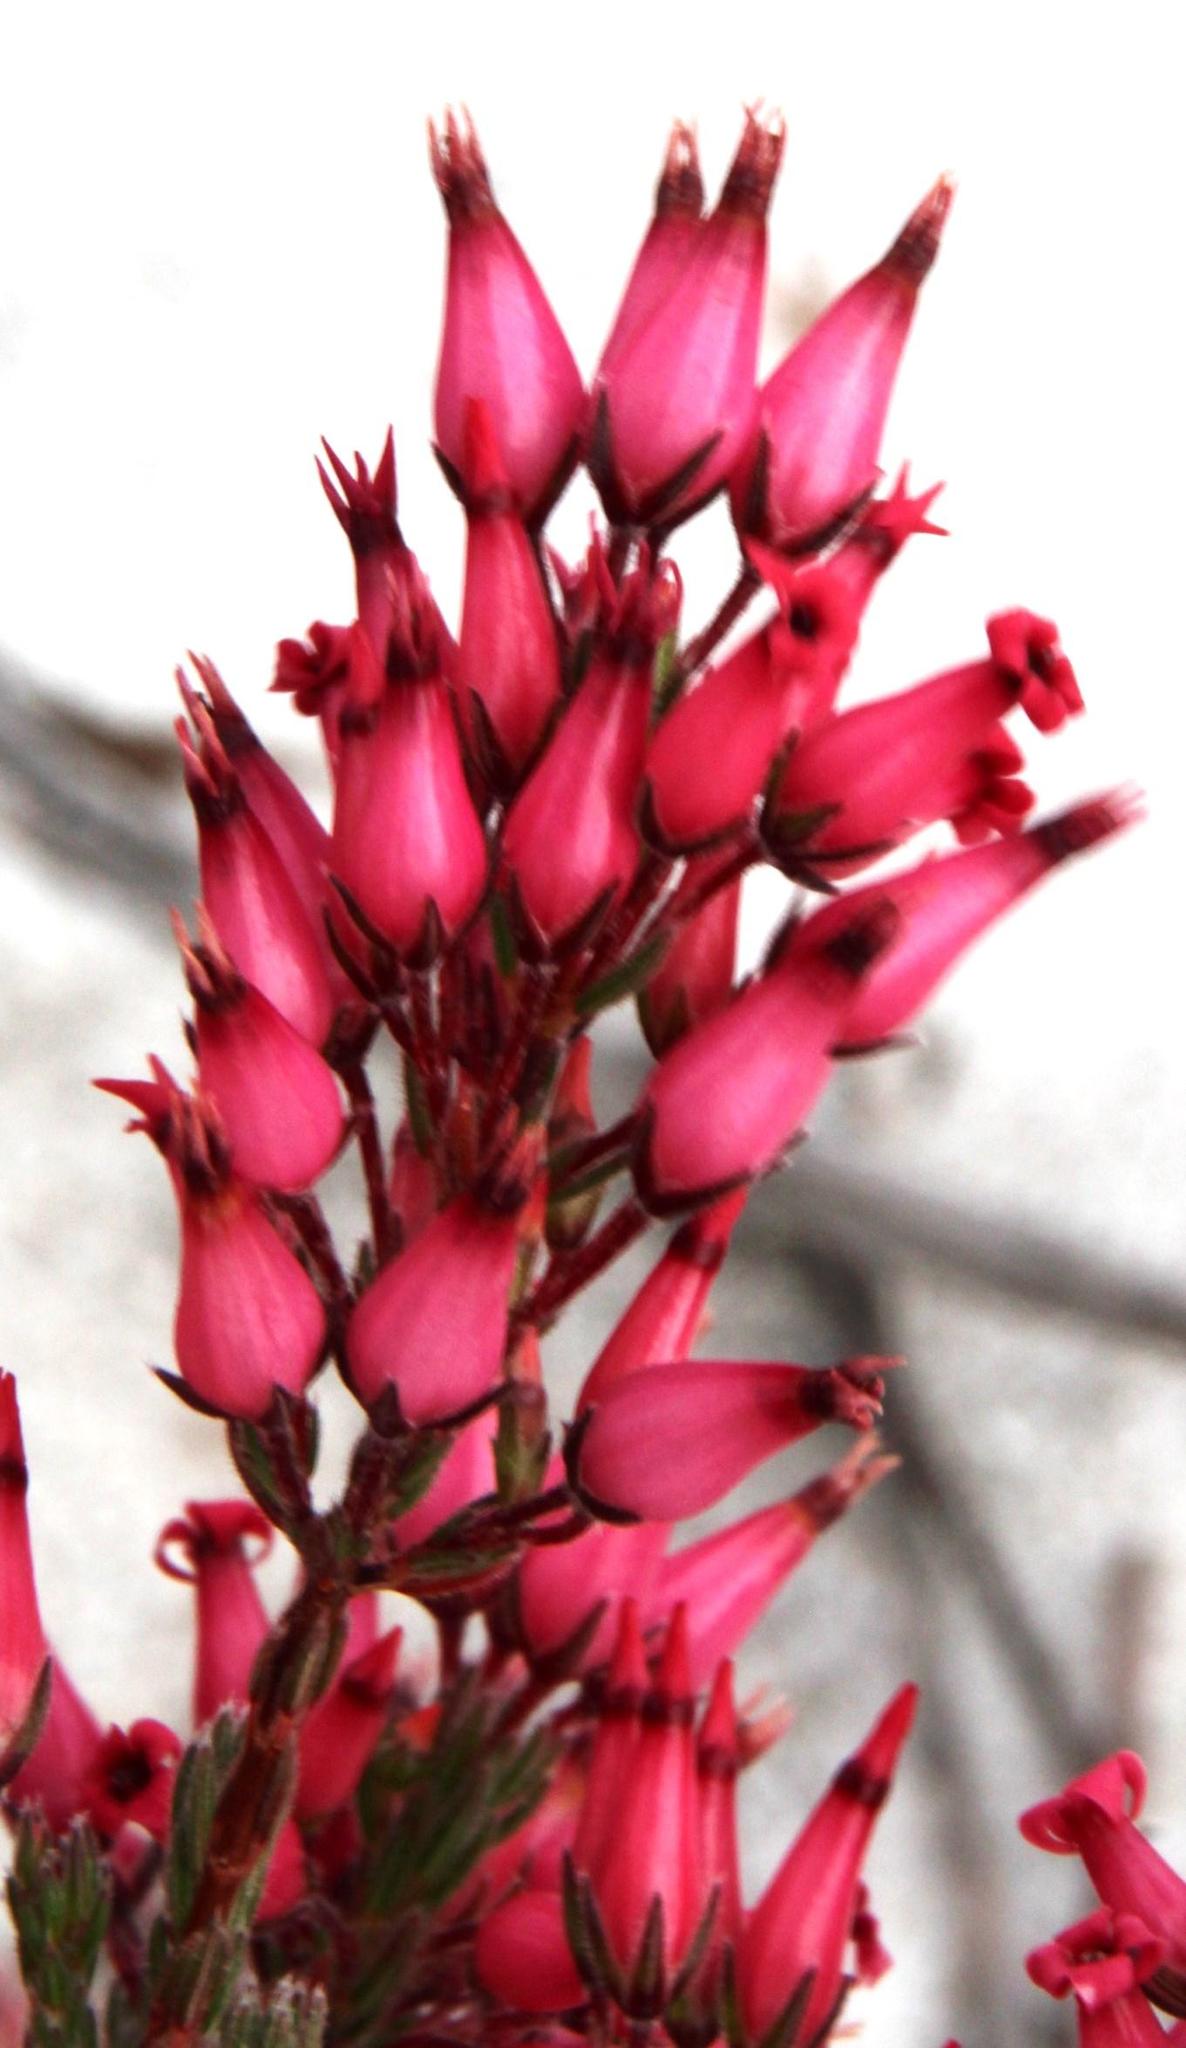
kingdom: Plantae
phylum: Tracheophyta
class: Magnoliopsida
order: Ericales
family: Ericaceae
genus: Erica
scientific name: Erica
